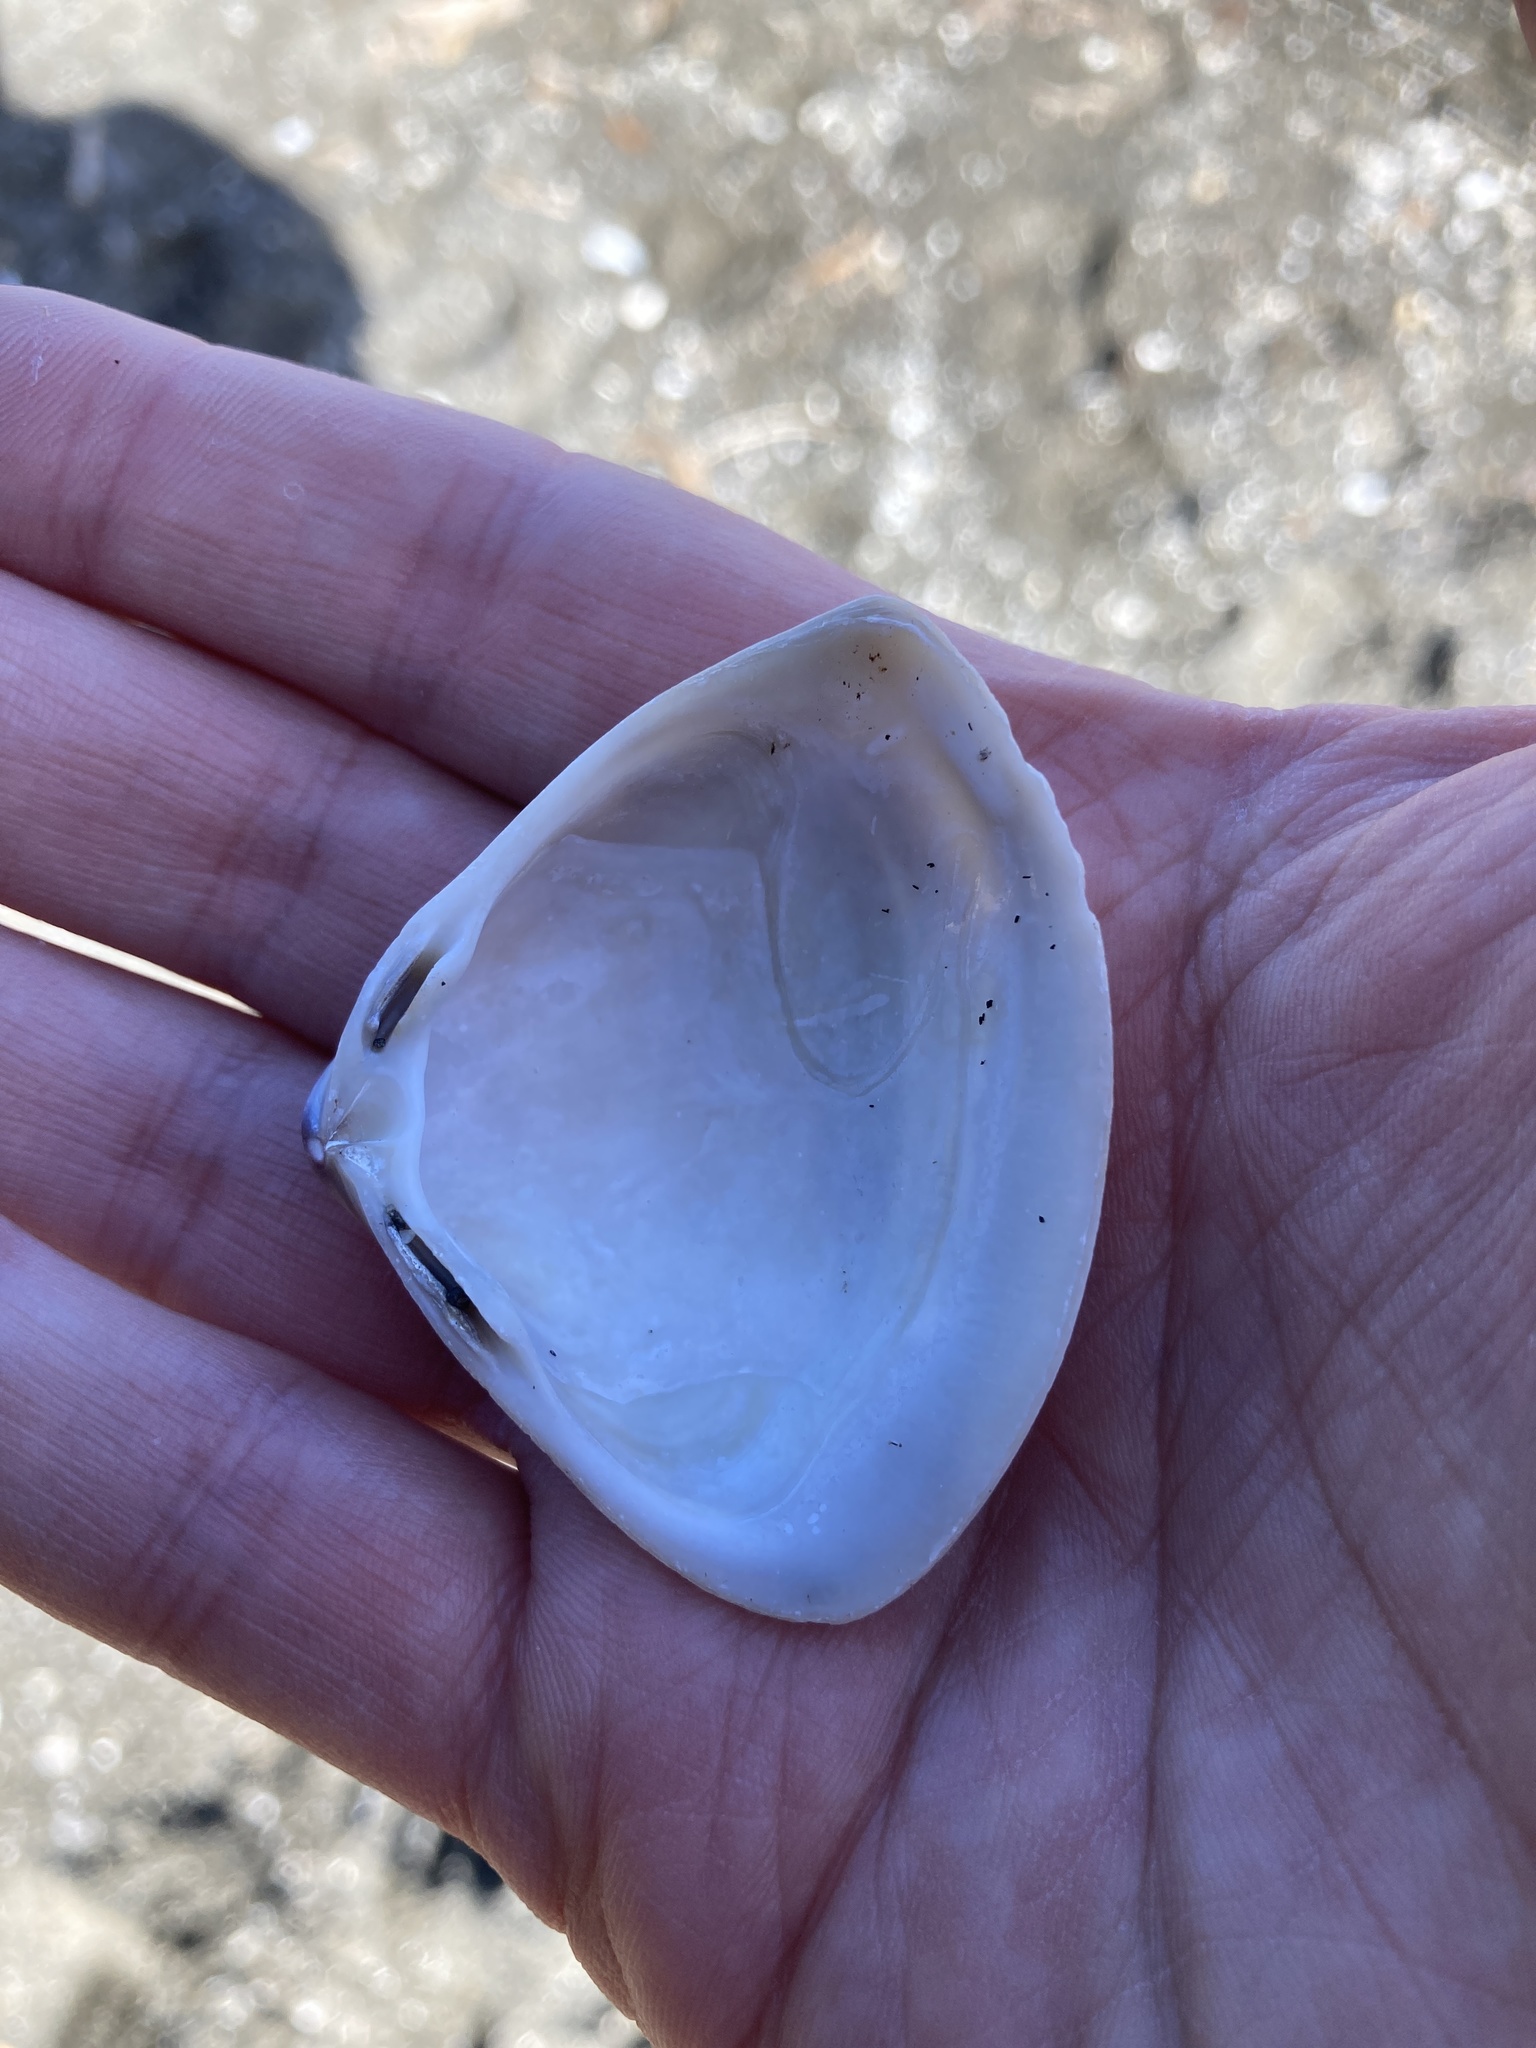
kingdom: Animalia
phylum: Mollusca
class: Bivalvia
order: Venerida
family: Mactridae
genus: Crassula
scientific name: Crassula aequilatera
